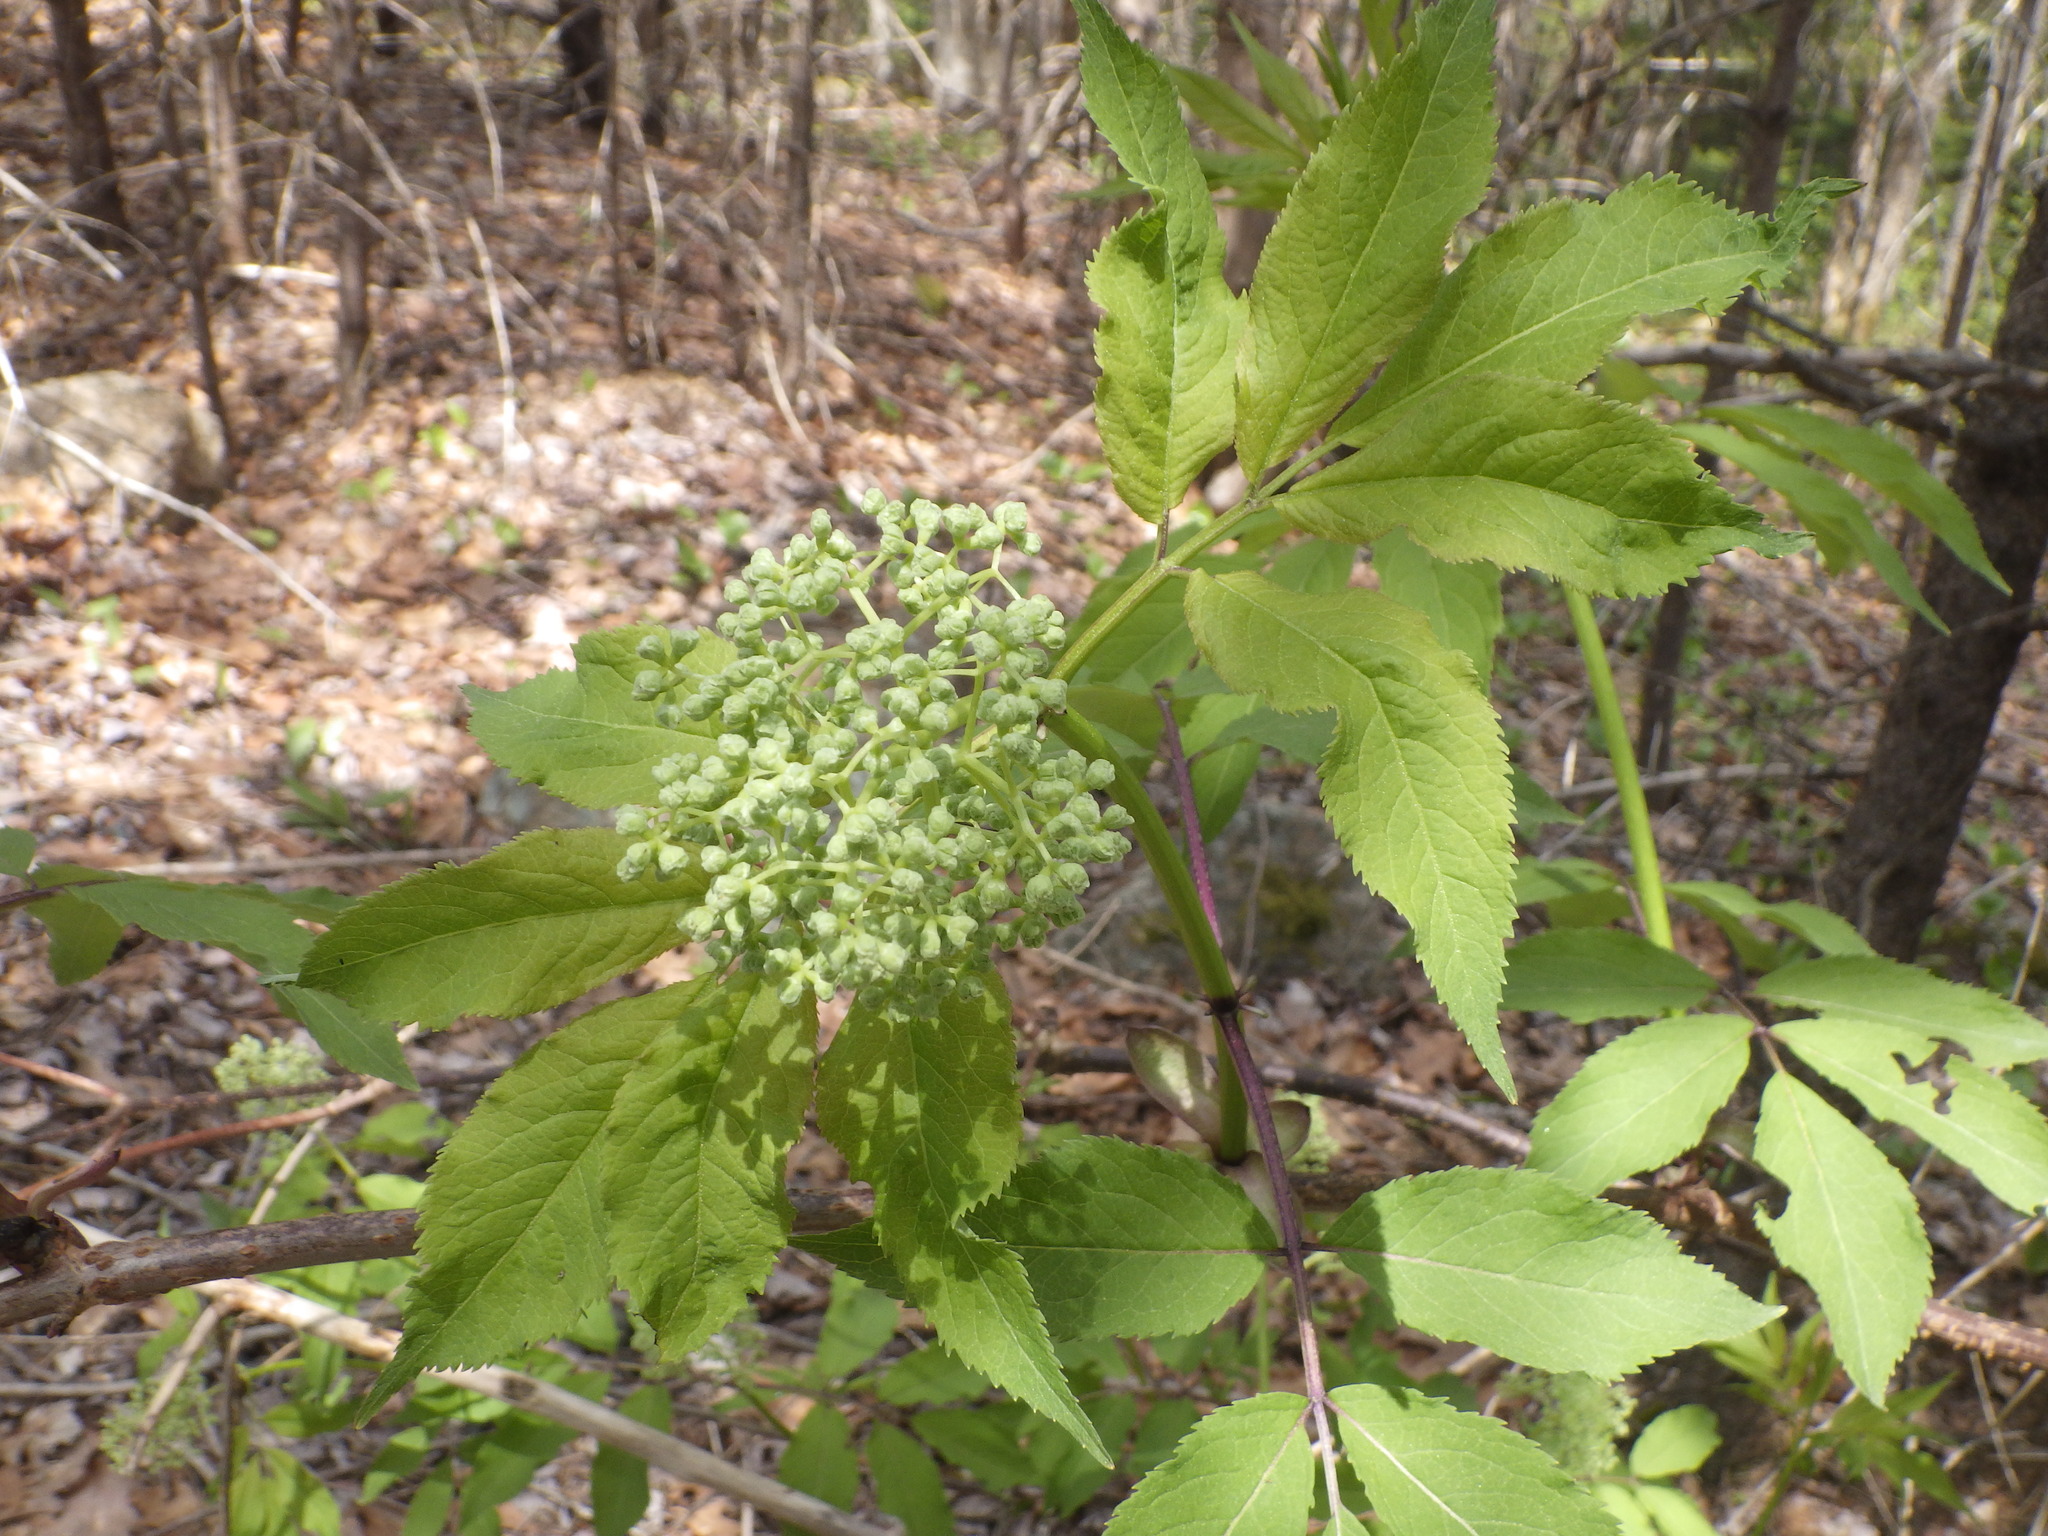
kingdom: Plantae
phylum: Tracheophyta
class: Magnoliopsida
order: Dipsacales
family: Viburnaceae
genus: Sambucus
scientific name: Sambucus racemosa
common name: Red-berried elder
